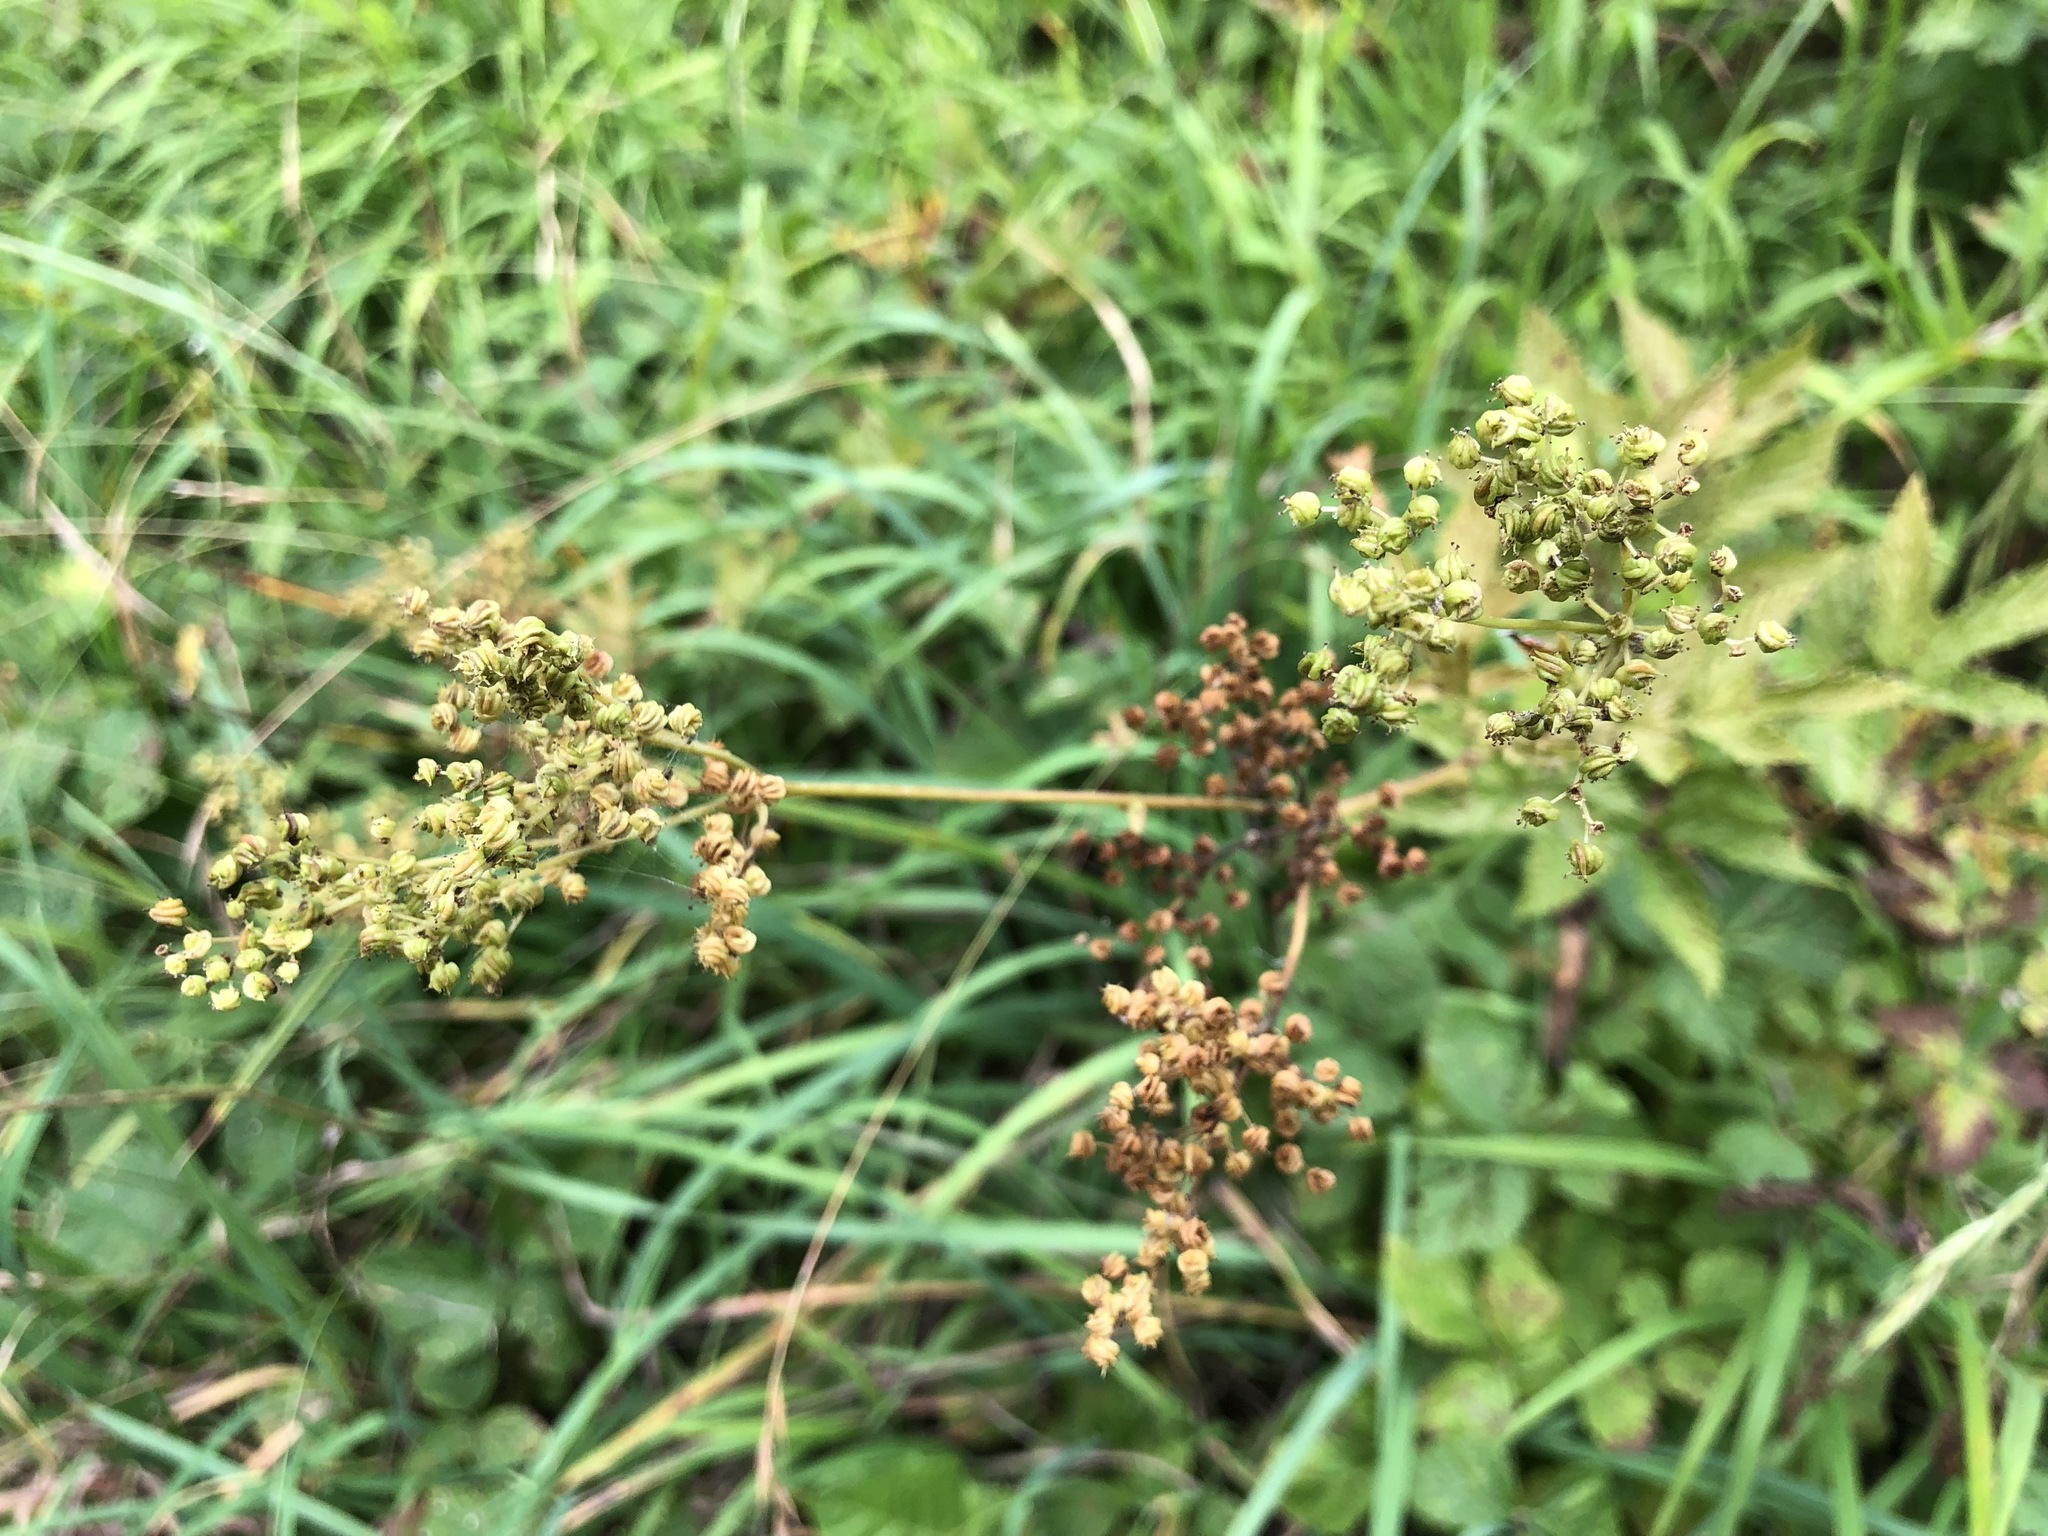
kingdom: Plantae
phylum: Tracheophyta
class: Magnoliopsida
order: Rosales
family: Rosaceae
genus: Filipendula
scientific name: Filipendula ulmaria
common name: Meadowsweet
